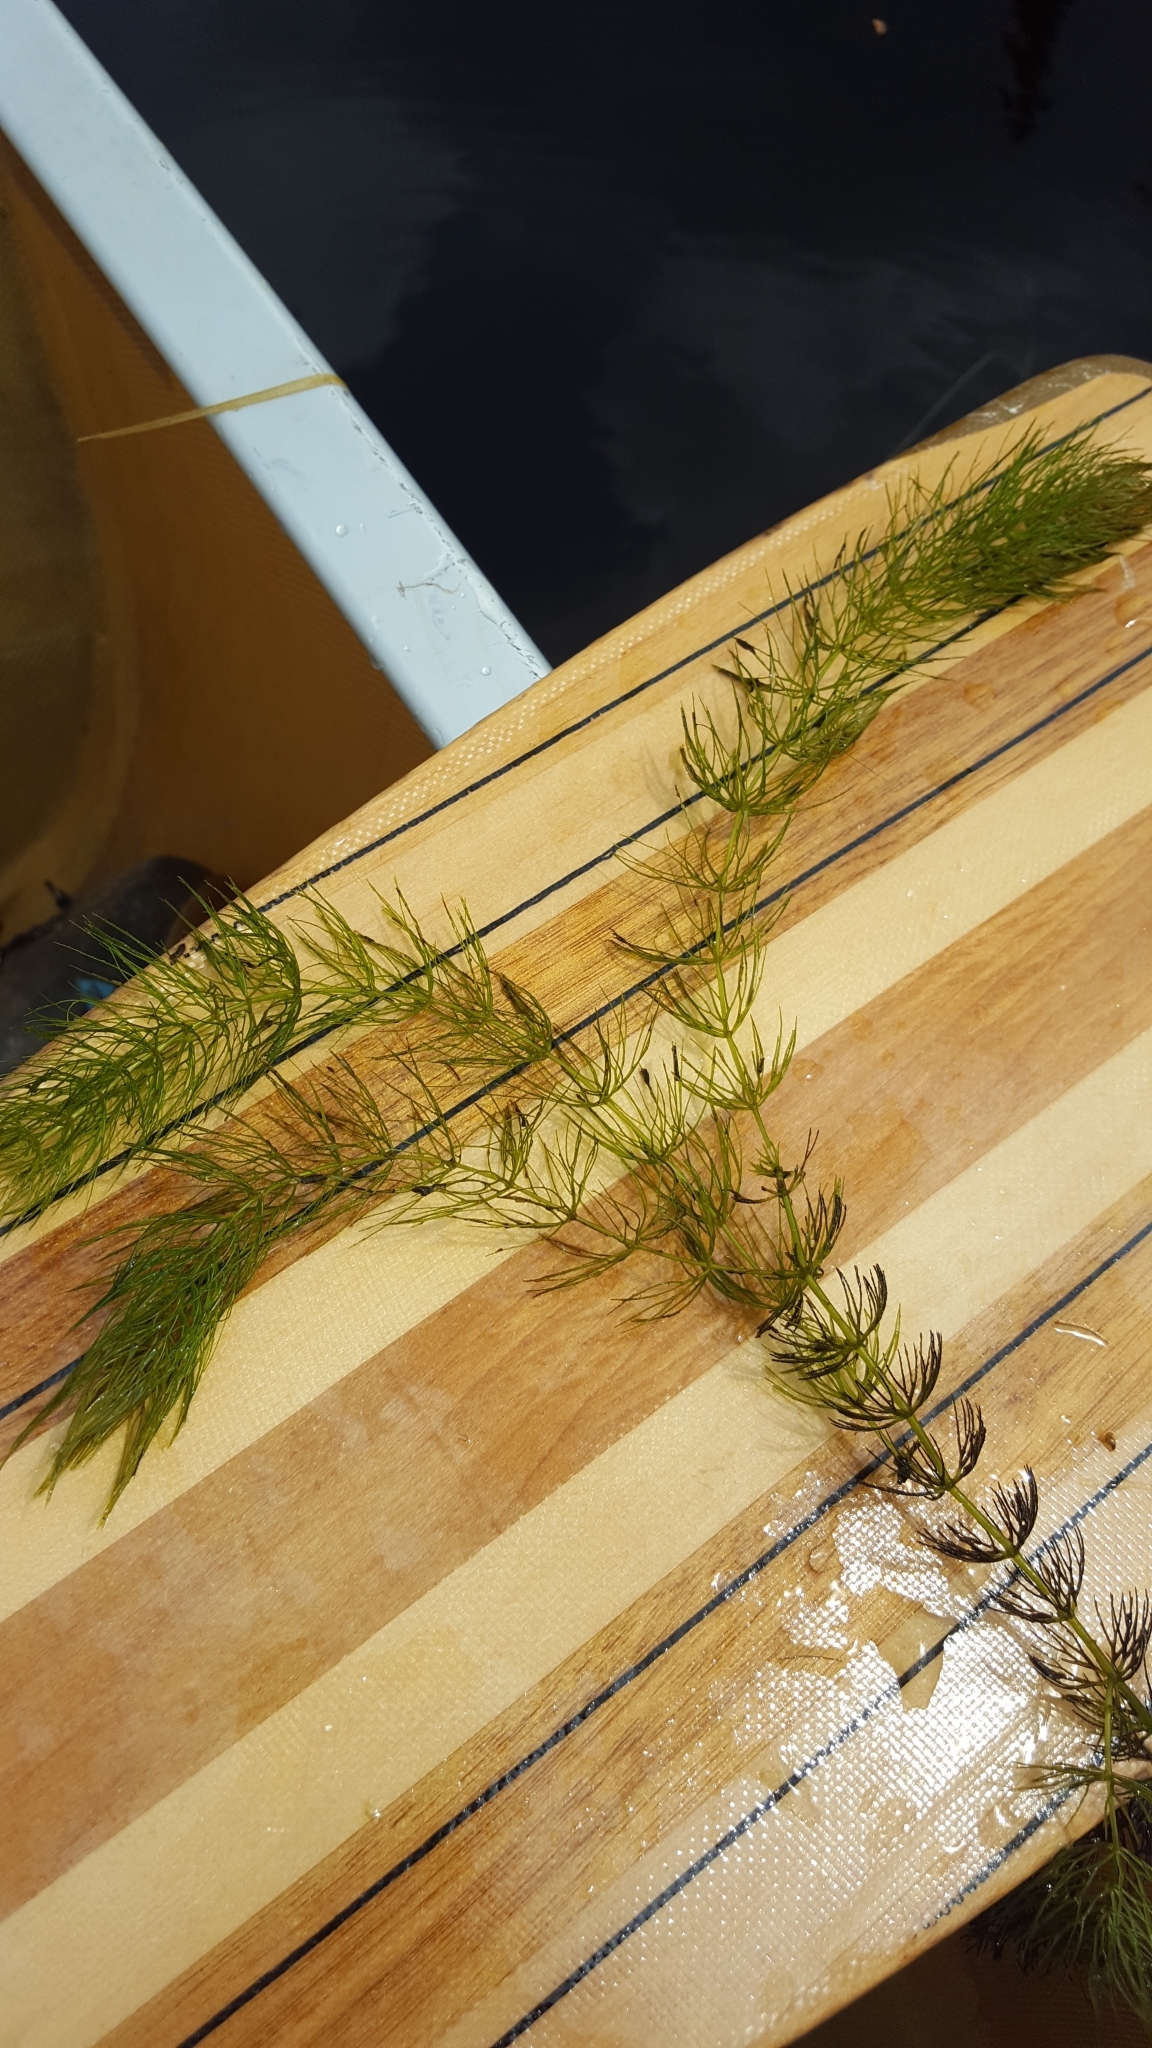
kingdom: Plantae
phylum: Tracheophyta
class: Magnoliopsida
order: Ceratophyllales
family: Ceratophyllaceae
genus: Ceratophyllum
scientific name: Ceratophyllum echinatum
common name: Prickly coontail
